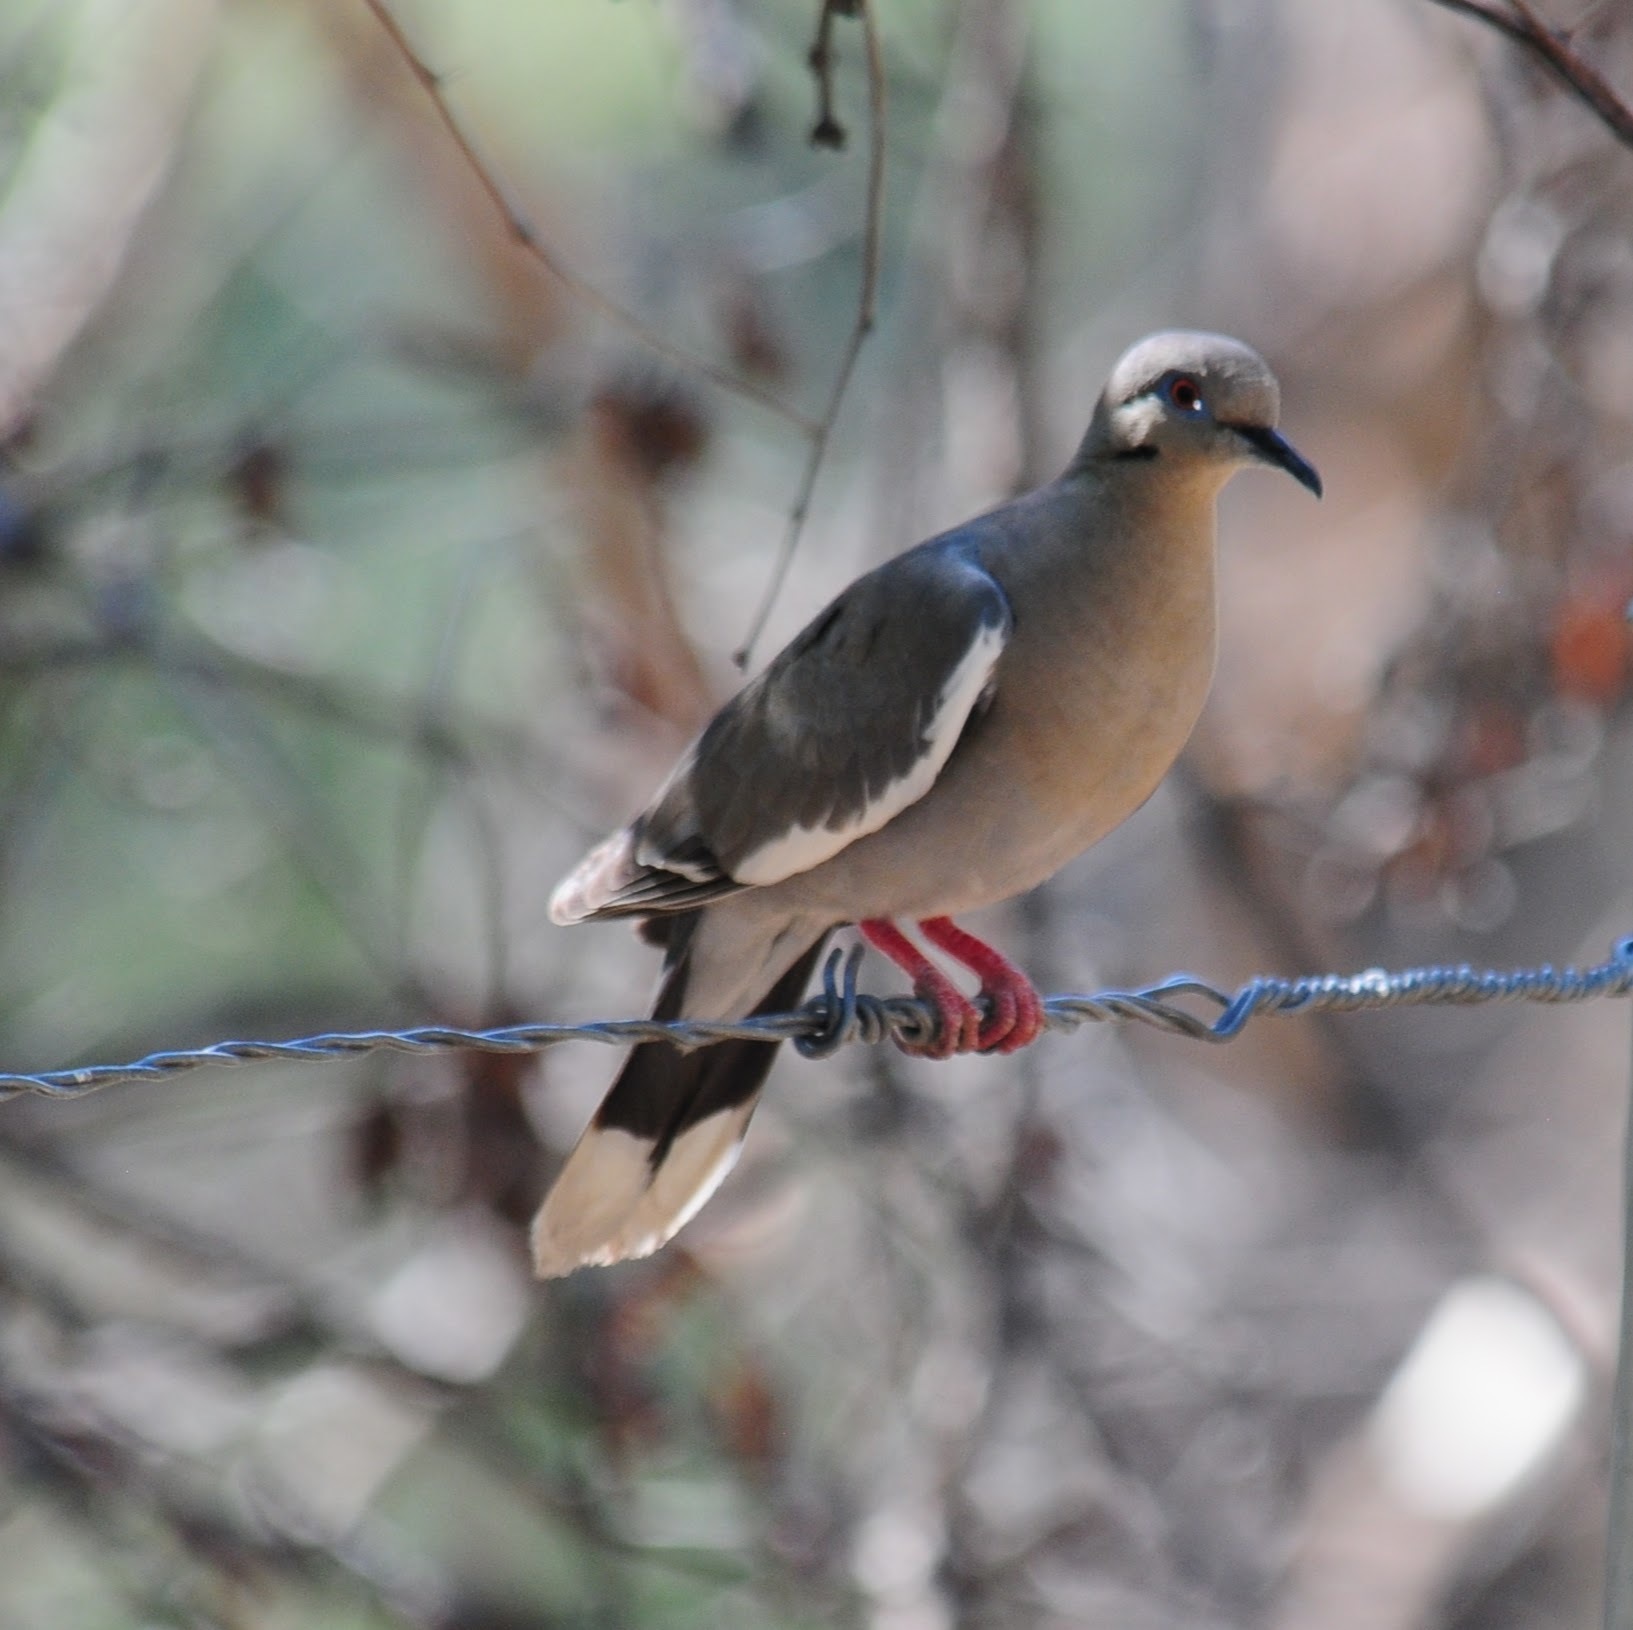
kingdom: Animalia
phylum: Chordata
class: Aves
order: Columbiformes
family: Columbidae
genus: Zenaida
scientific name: Zenaida asiatica
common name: White-winged dove
